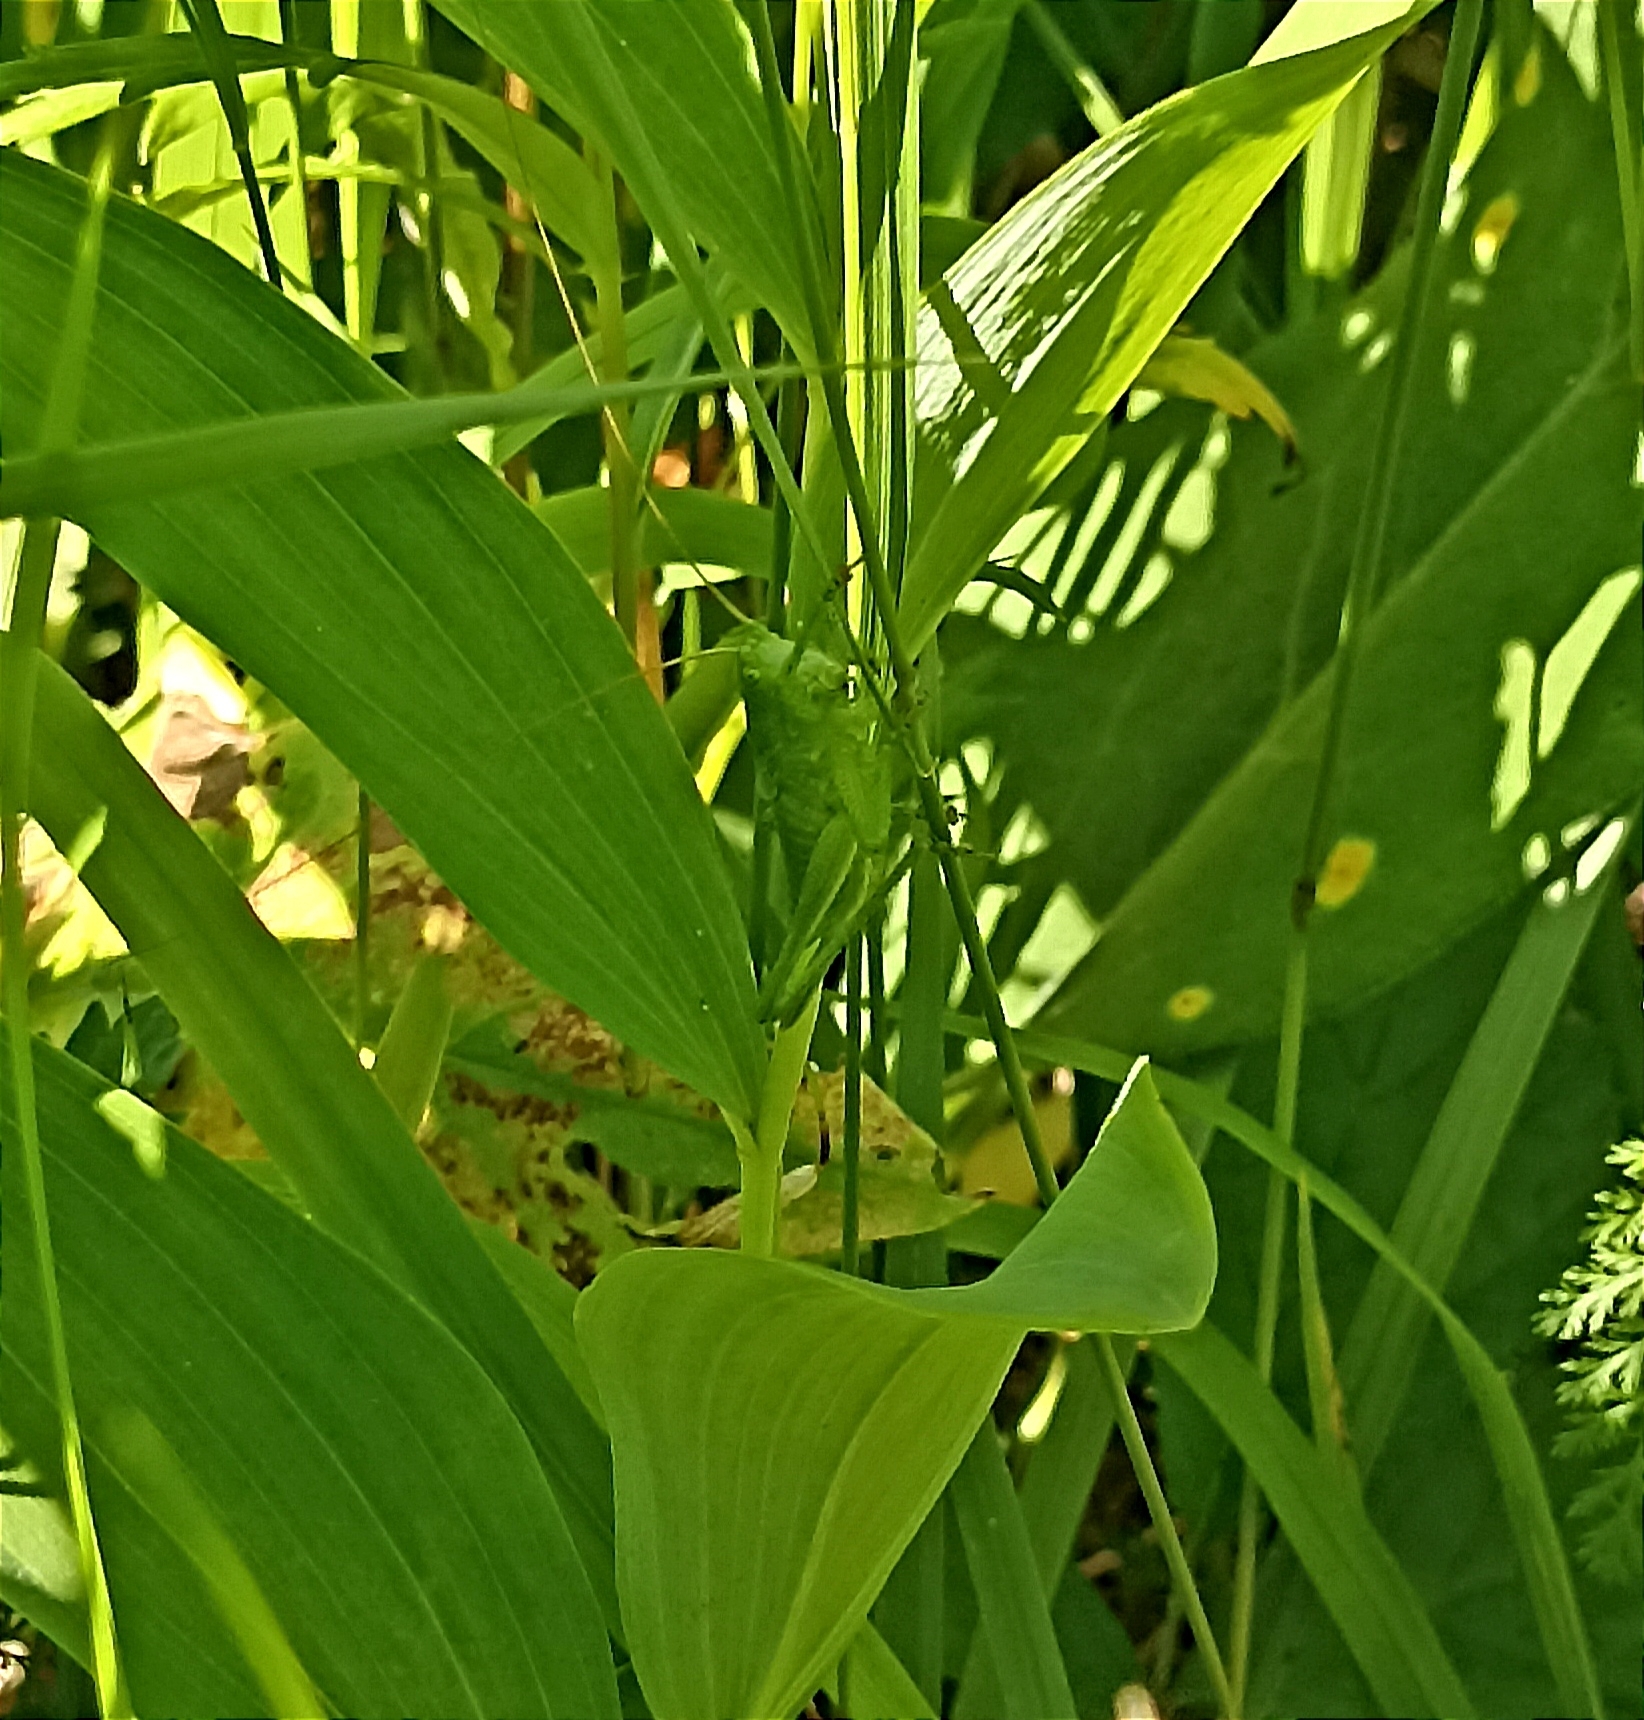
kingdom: Animalia
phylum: Arthropoda
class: Insecta
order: Orthoptera
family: Tettigoniidae
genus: Tettigonia
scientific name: Tettigonia cantans
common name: Upland green bush-cricket
